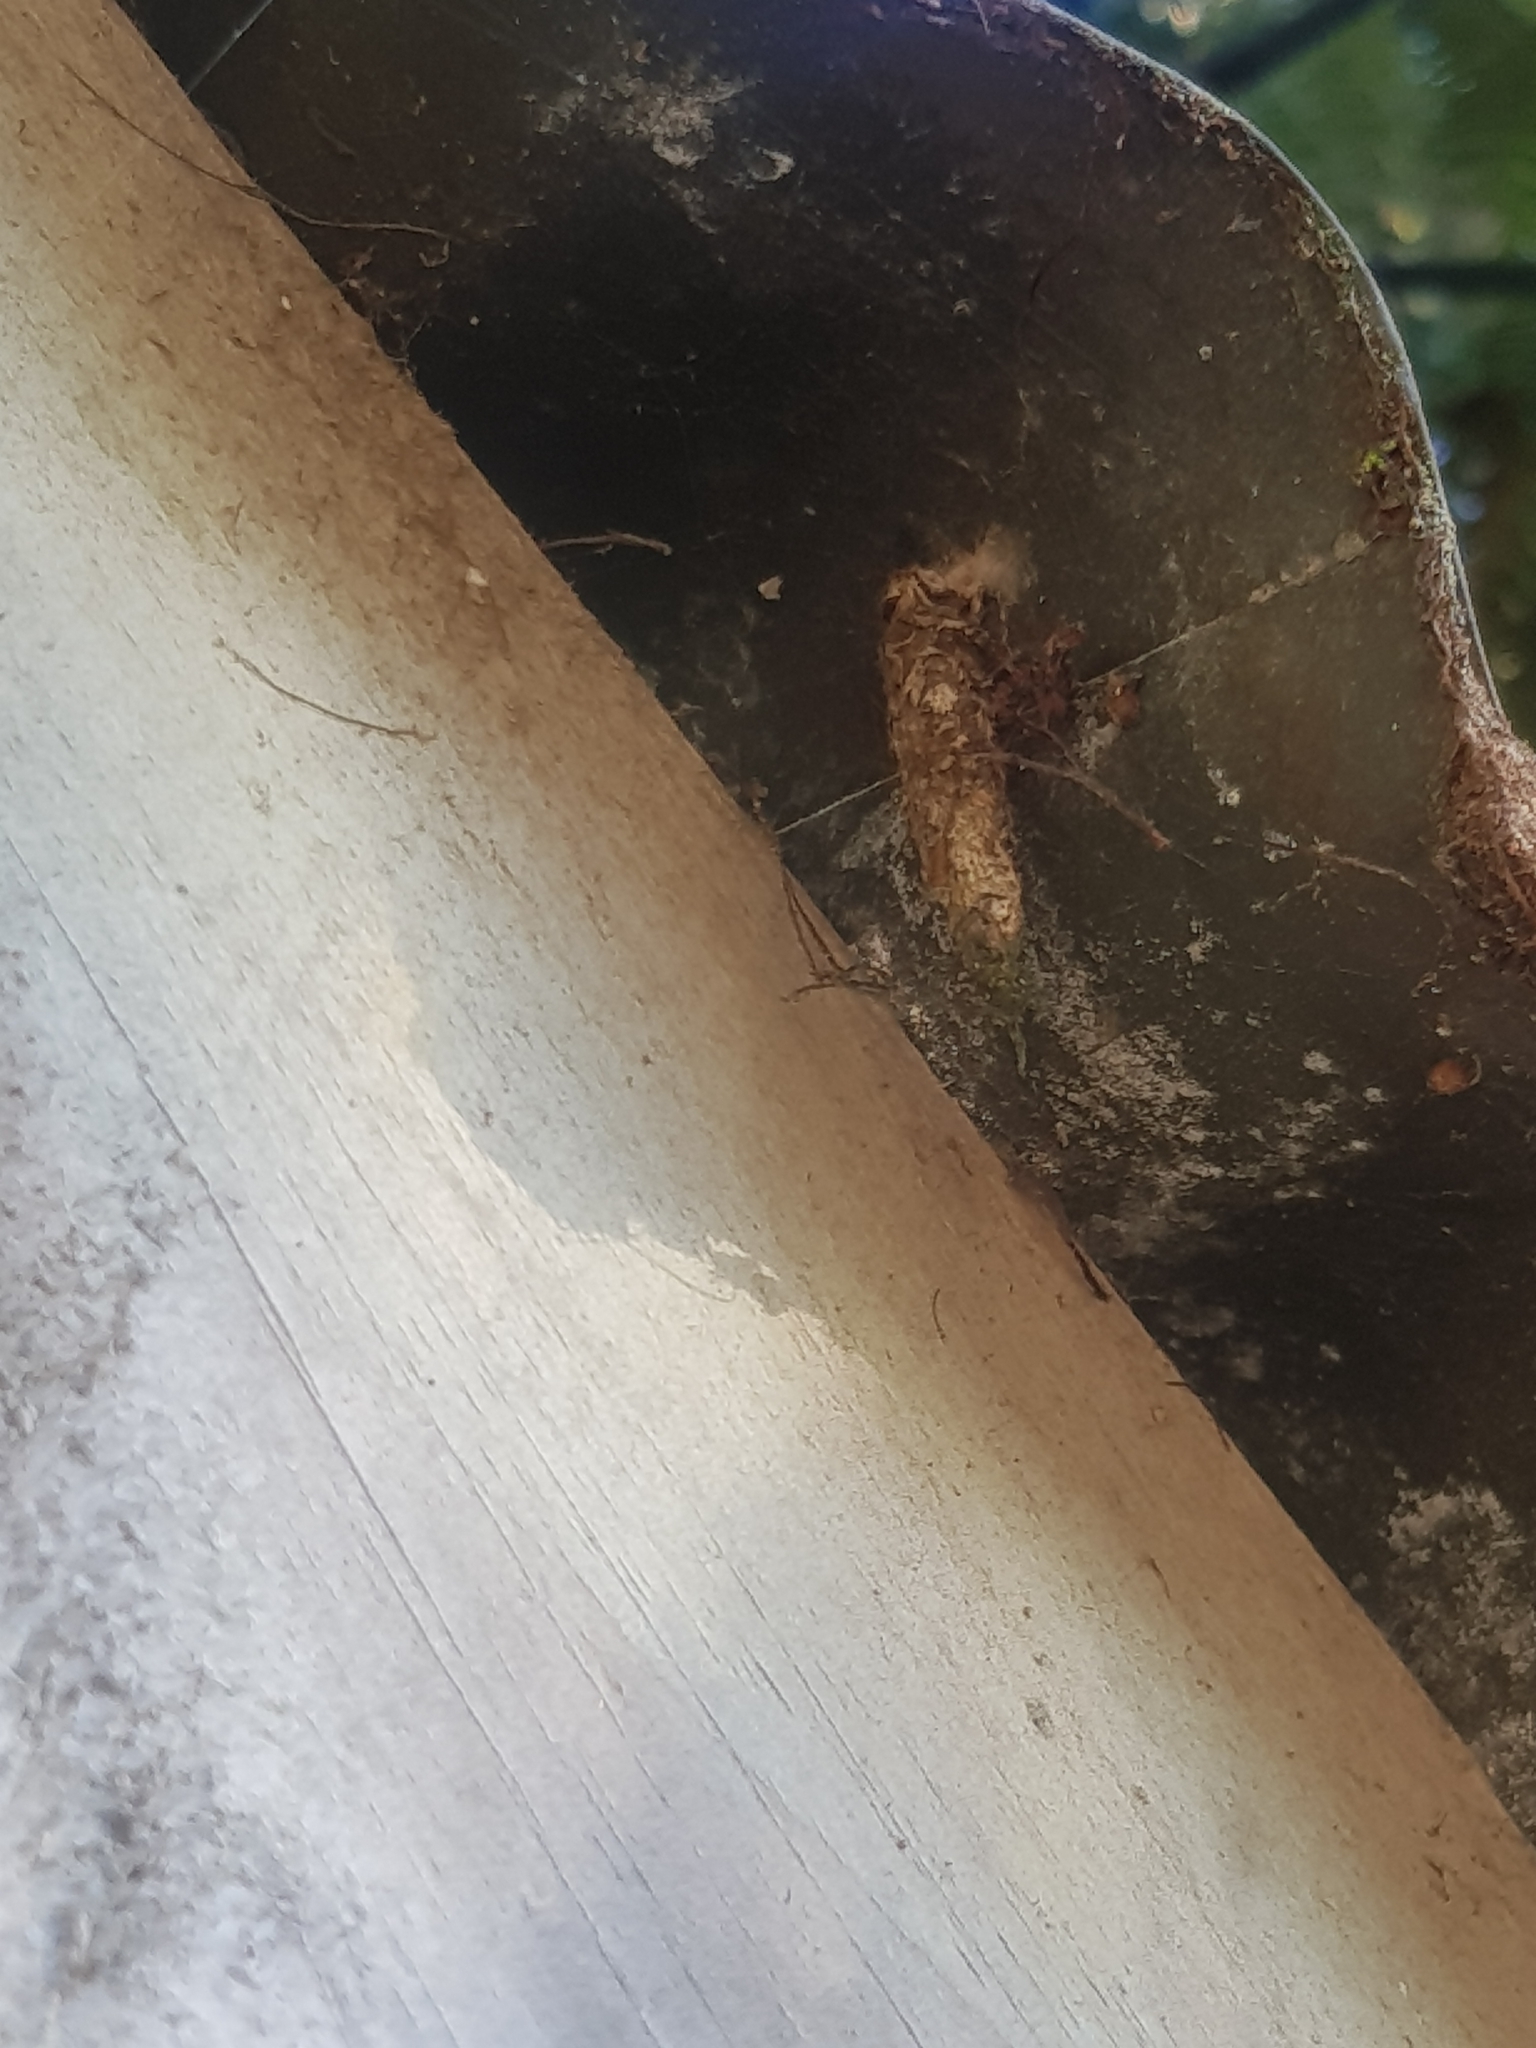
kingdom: Animalia
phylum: Arthropoda
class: Insecta
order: Lepidoptera
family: Psychidae
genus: Liothula
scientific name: Liothula omnivora
